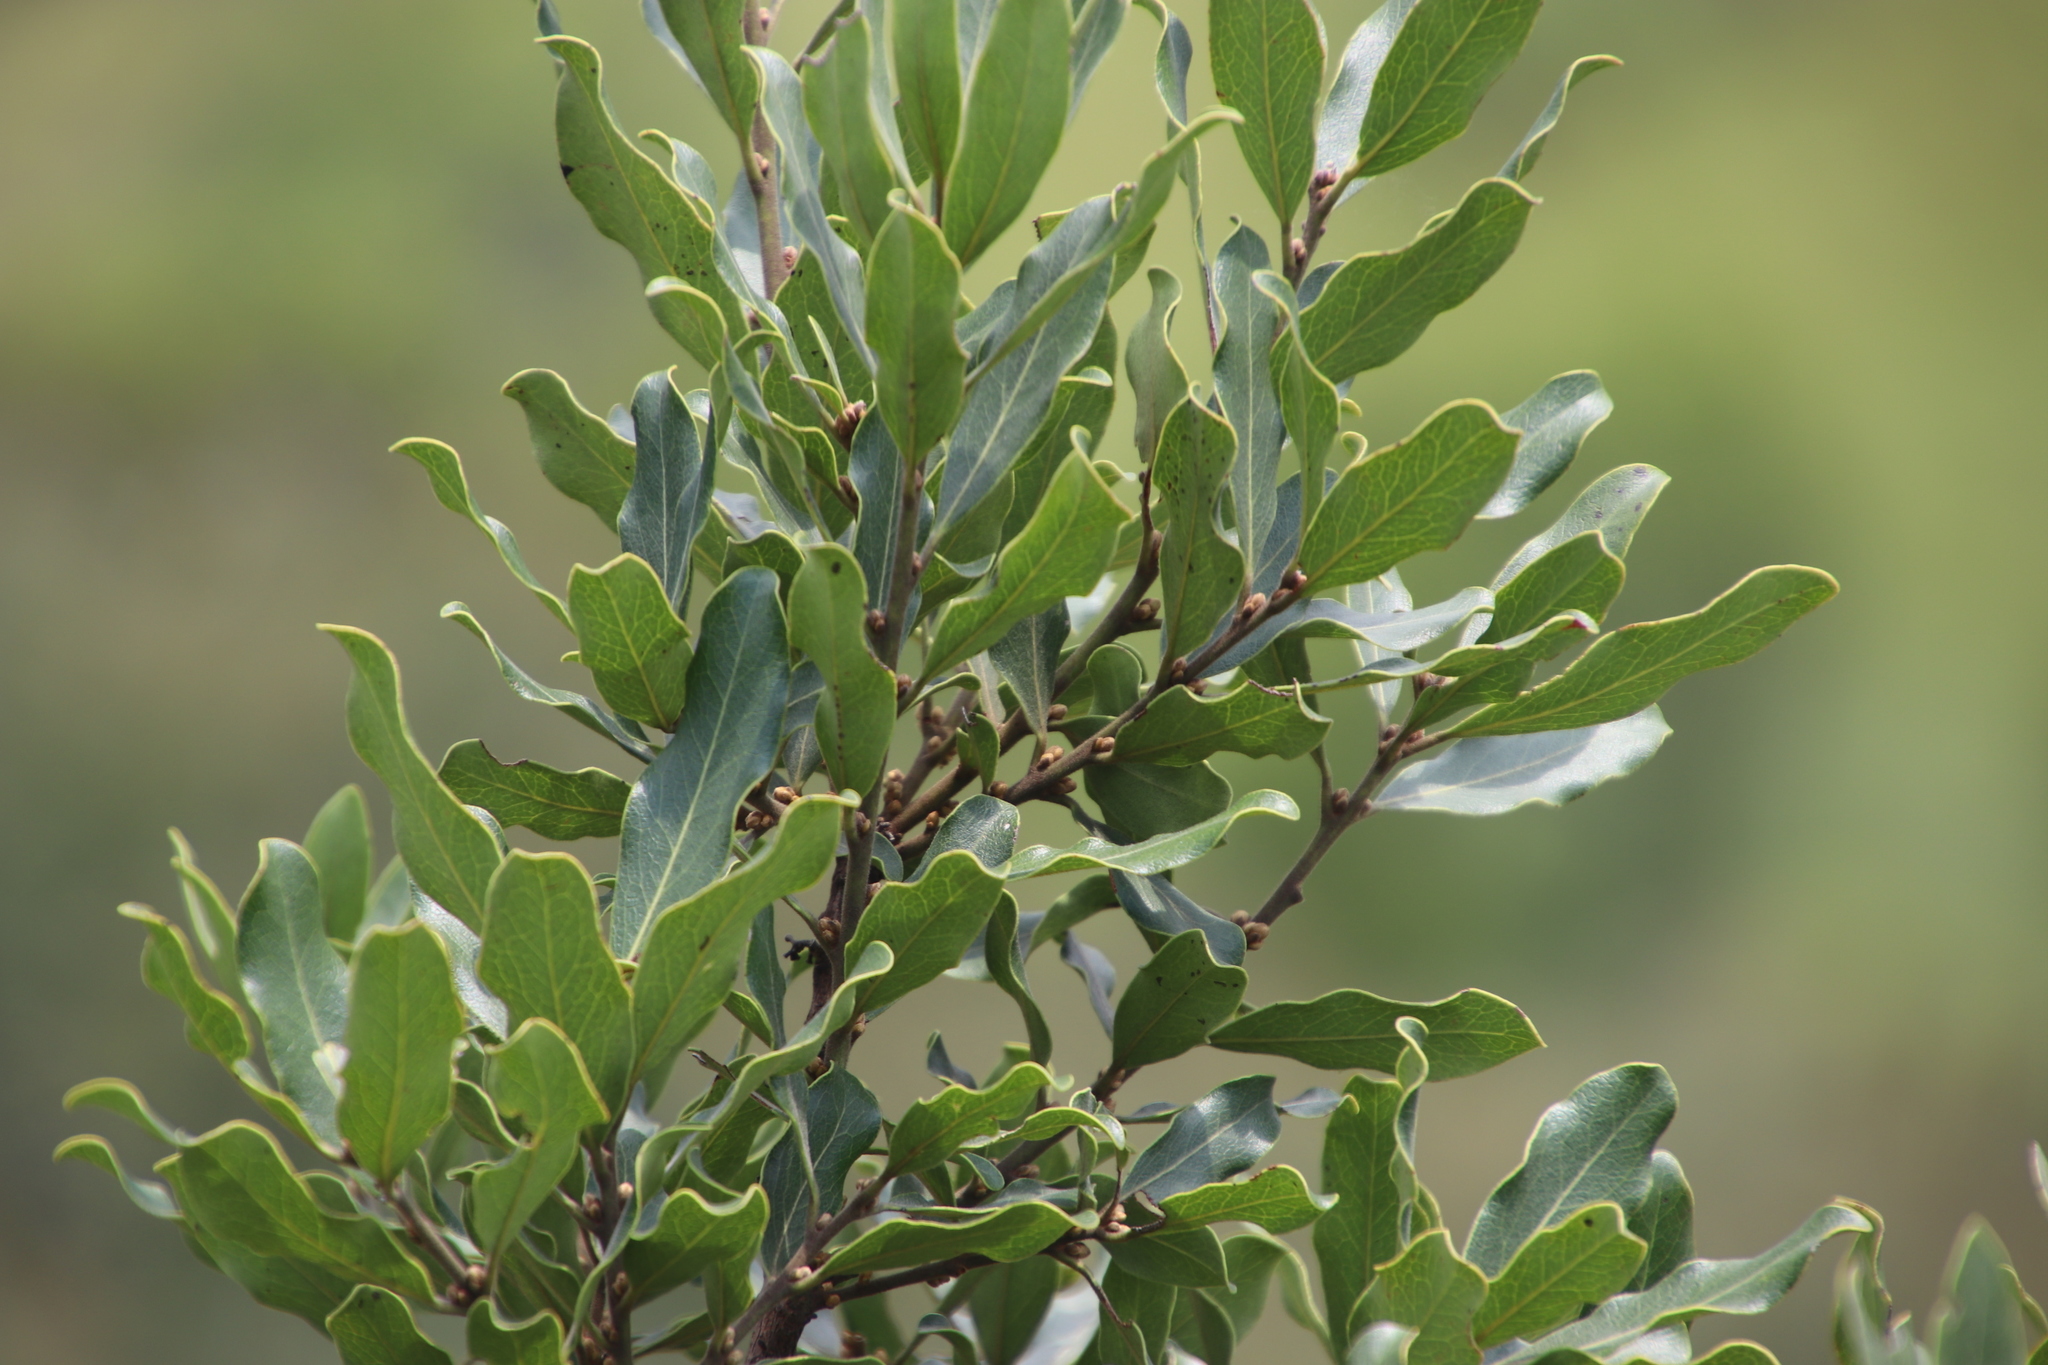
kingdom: Plantae
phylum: Tracheophyta
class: Magnoliopsida
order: Ericales
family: Ebenaceae
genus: Euclea
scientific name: Euclea natalensis
